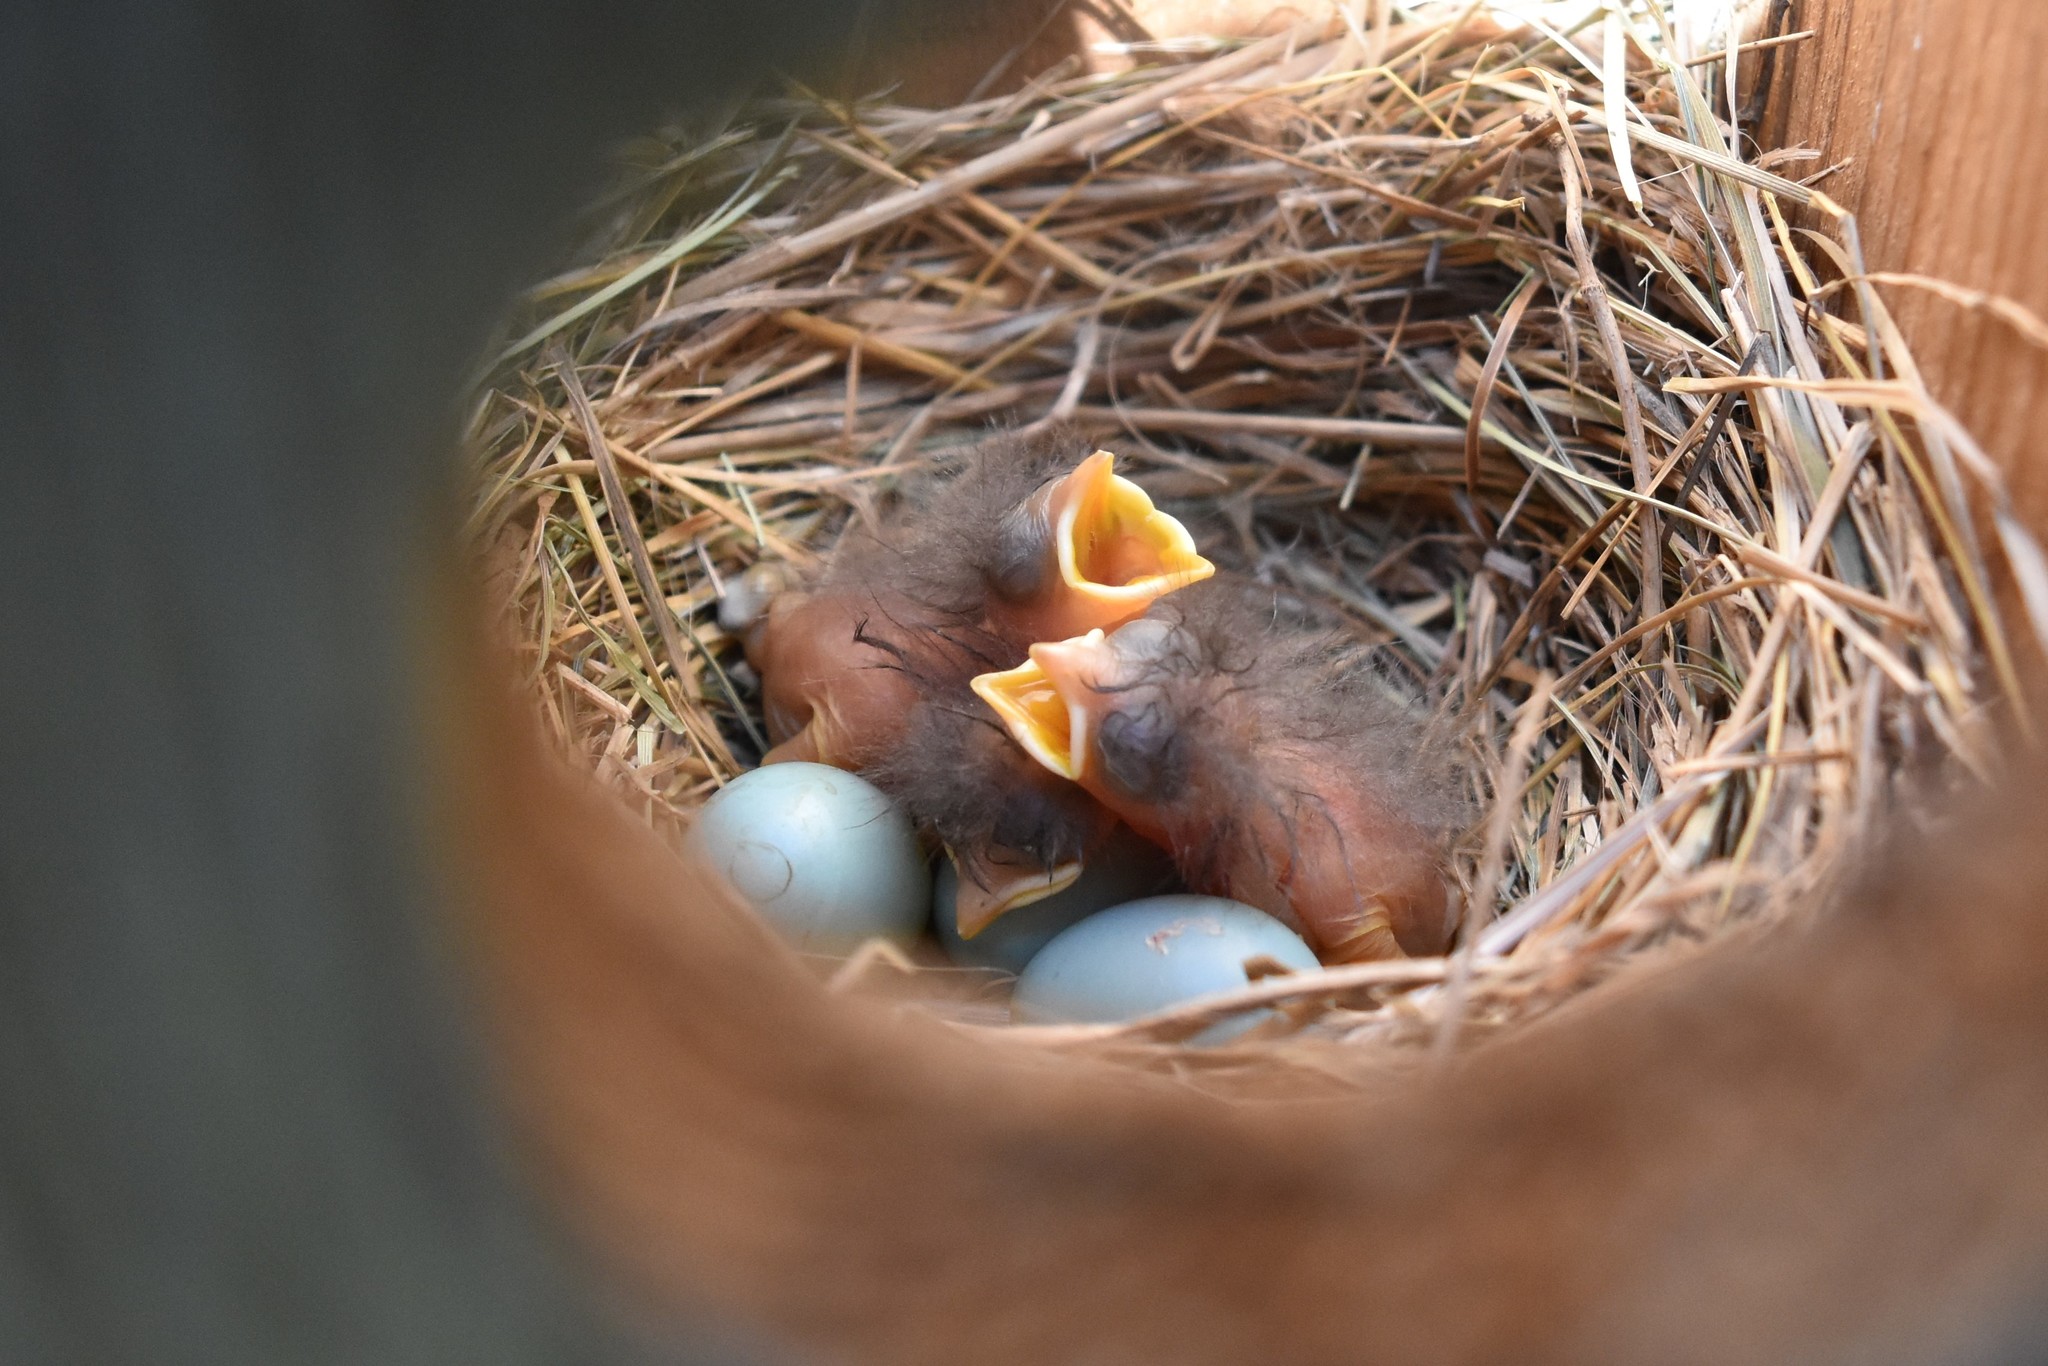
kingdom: Animalia
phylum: Chordata
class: Aves
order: Passeriformes
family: Turdidae
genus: Sialia
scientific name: Sialia mexicana
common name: Western bluebird
